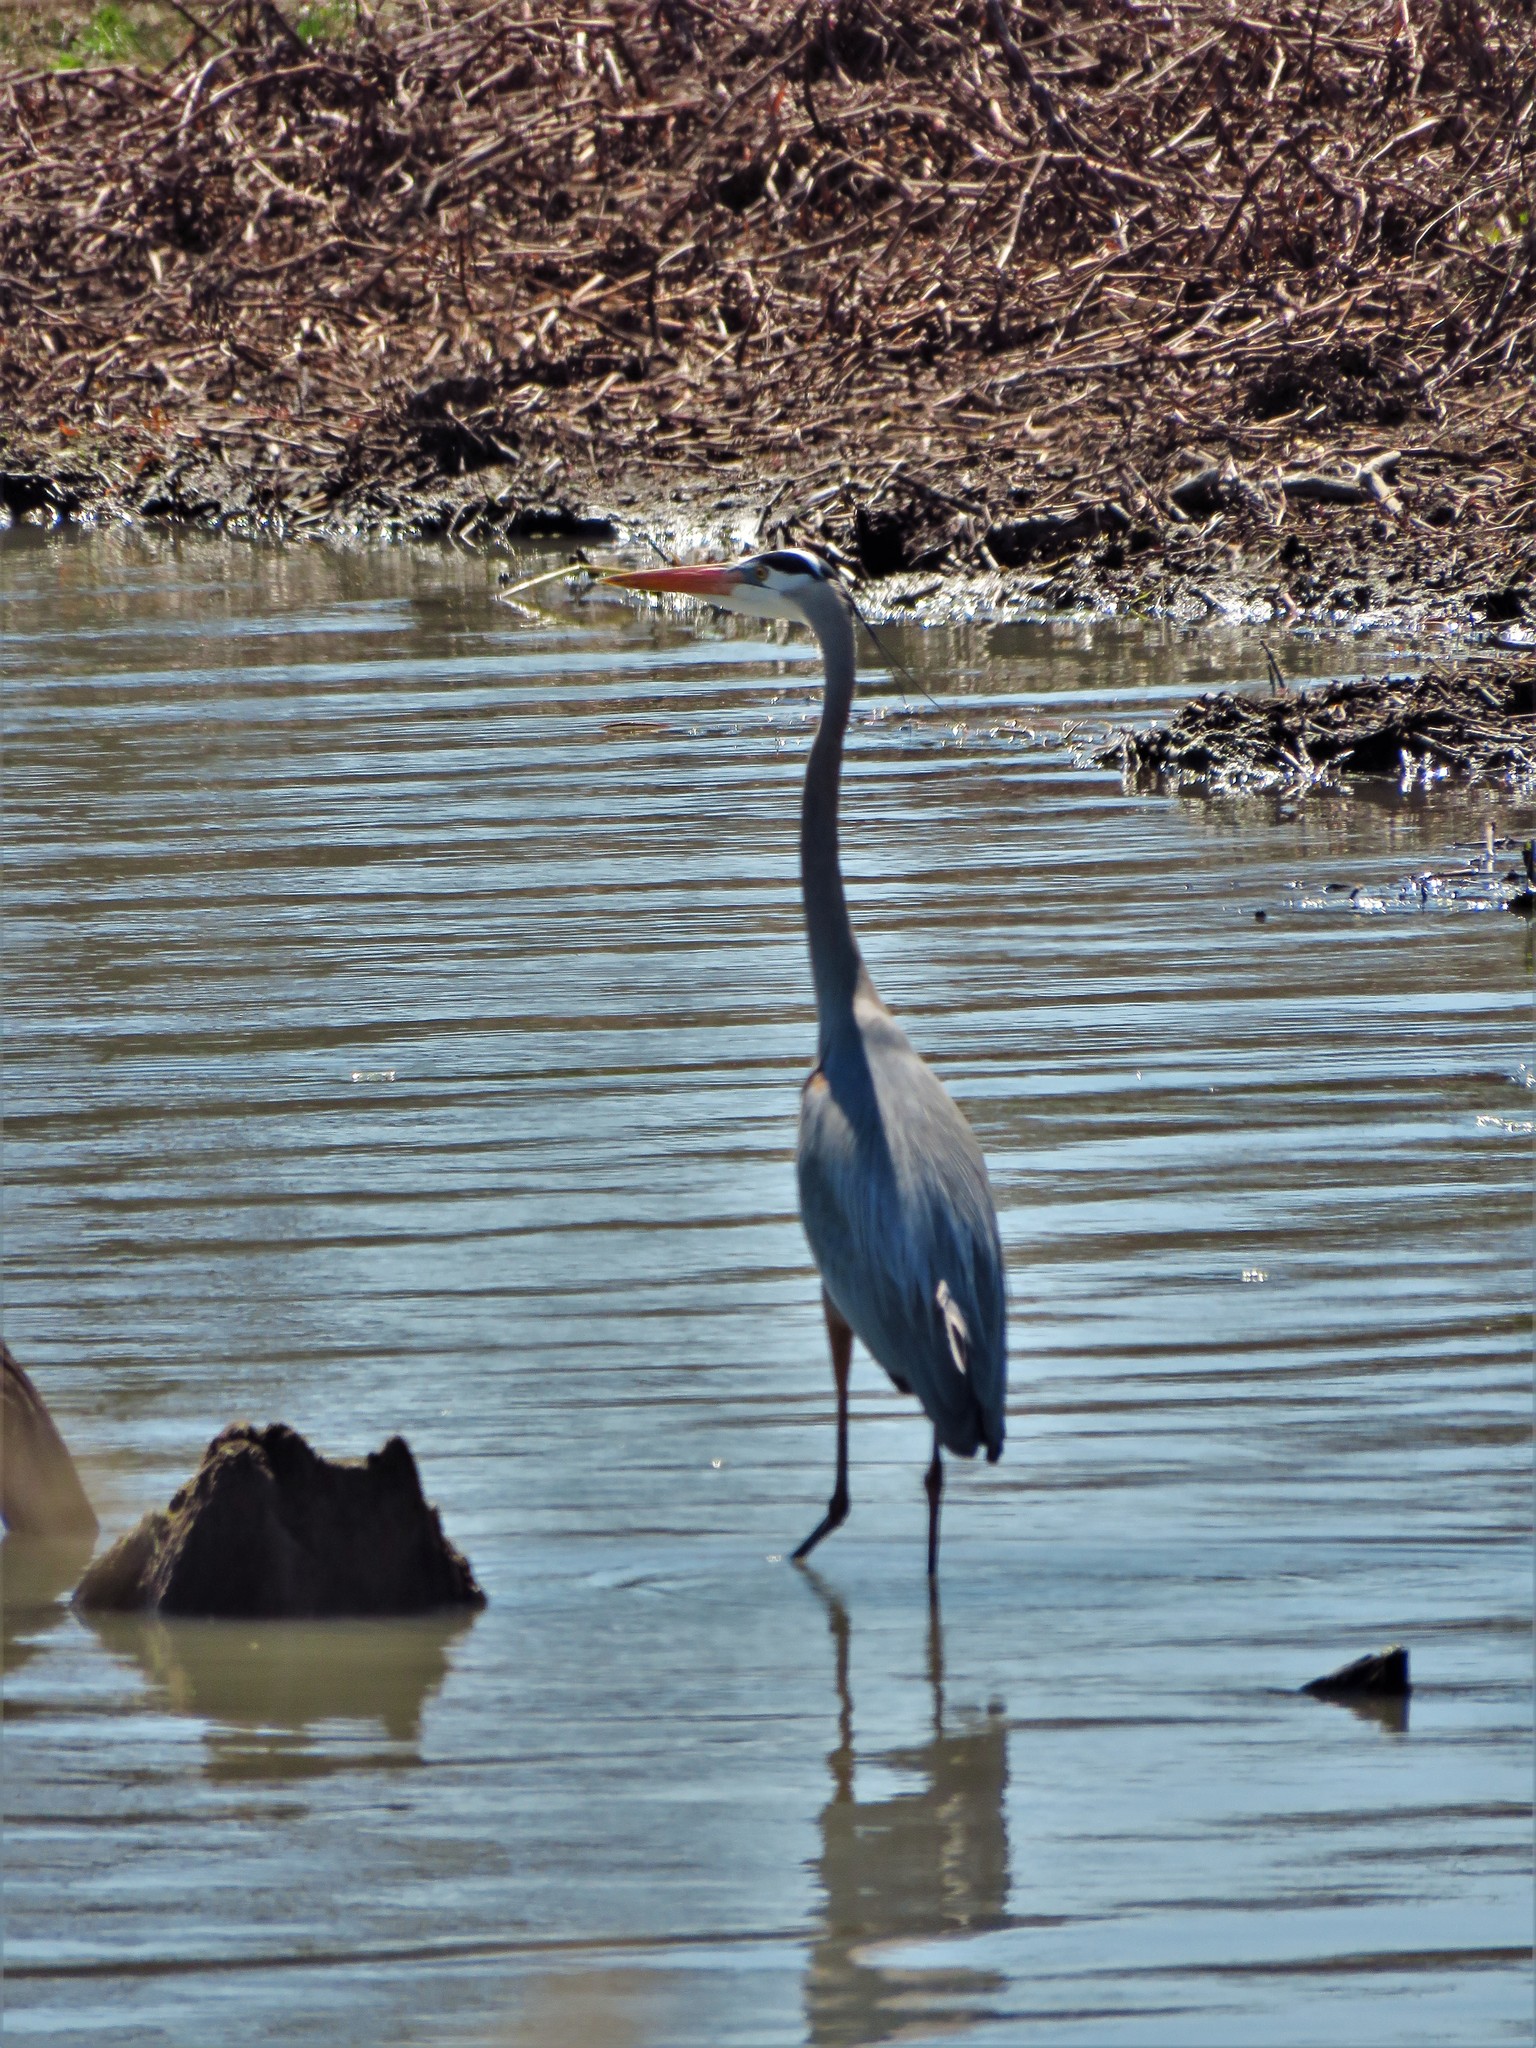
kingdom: Animalia
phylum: Chordata
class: Aves
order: Pelecaniformes
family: Ardeidae
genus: Ardea
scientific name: Ardea herodias
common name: Great blue heron
